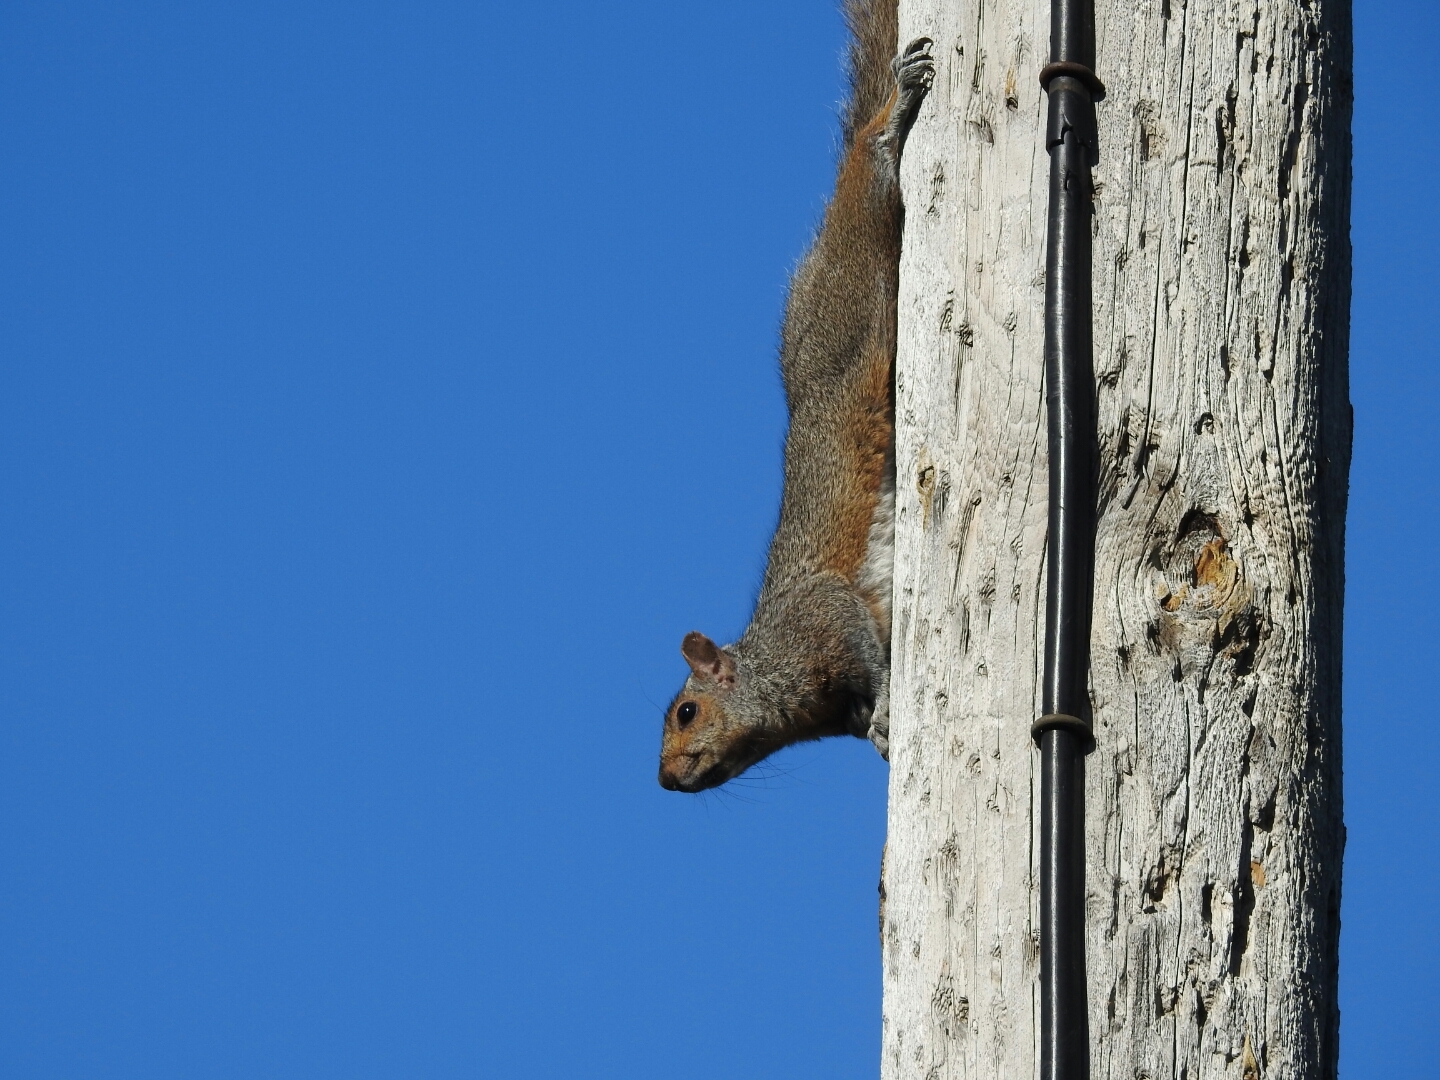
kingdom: Animalia
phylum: Chordata
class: Mammalia
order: Rodentia
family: Sciuridae
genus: Sciurus
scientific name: Sciurus carolinensis
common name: Eastern gray squirrel
